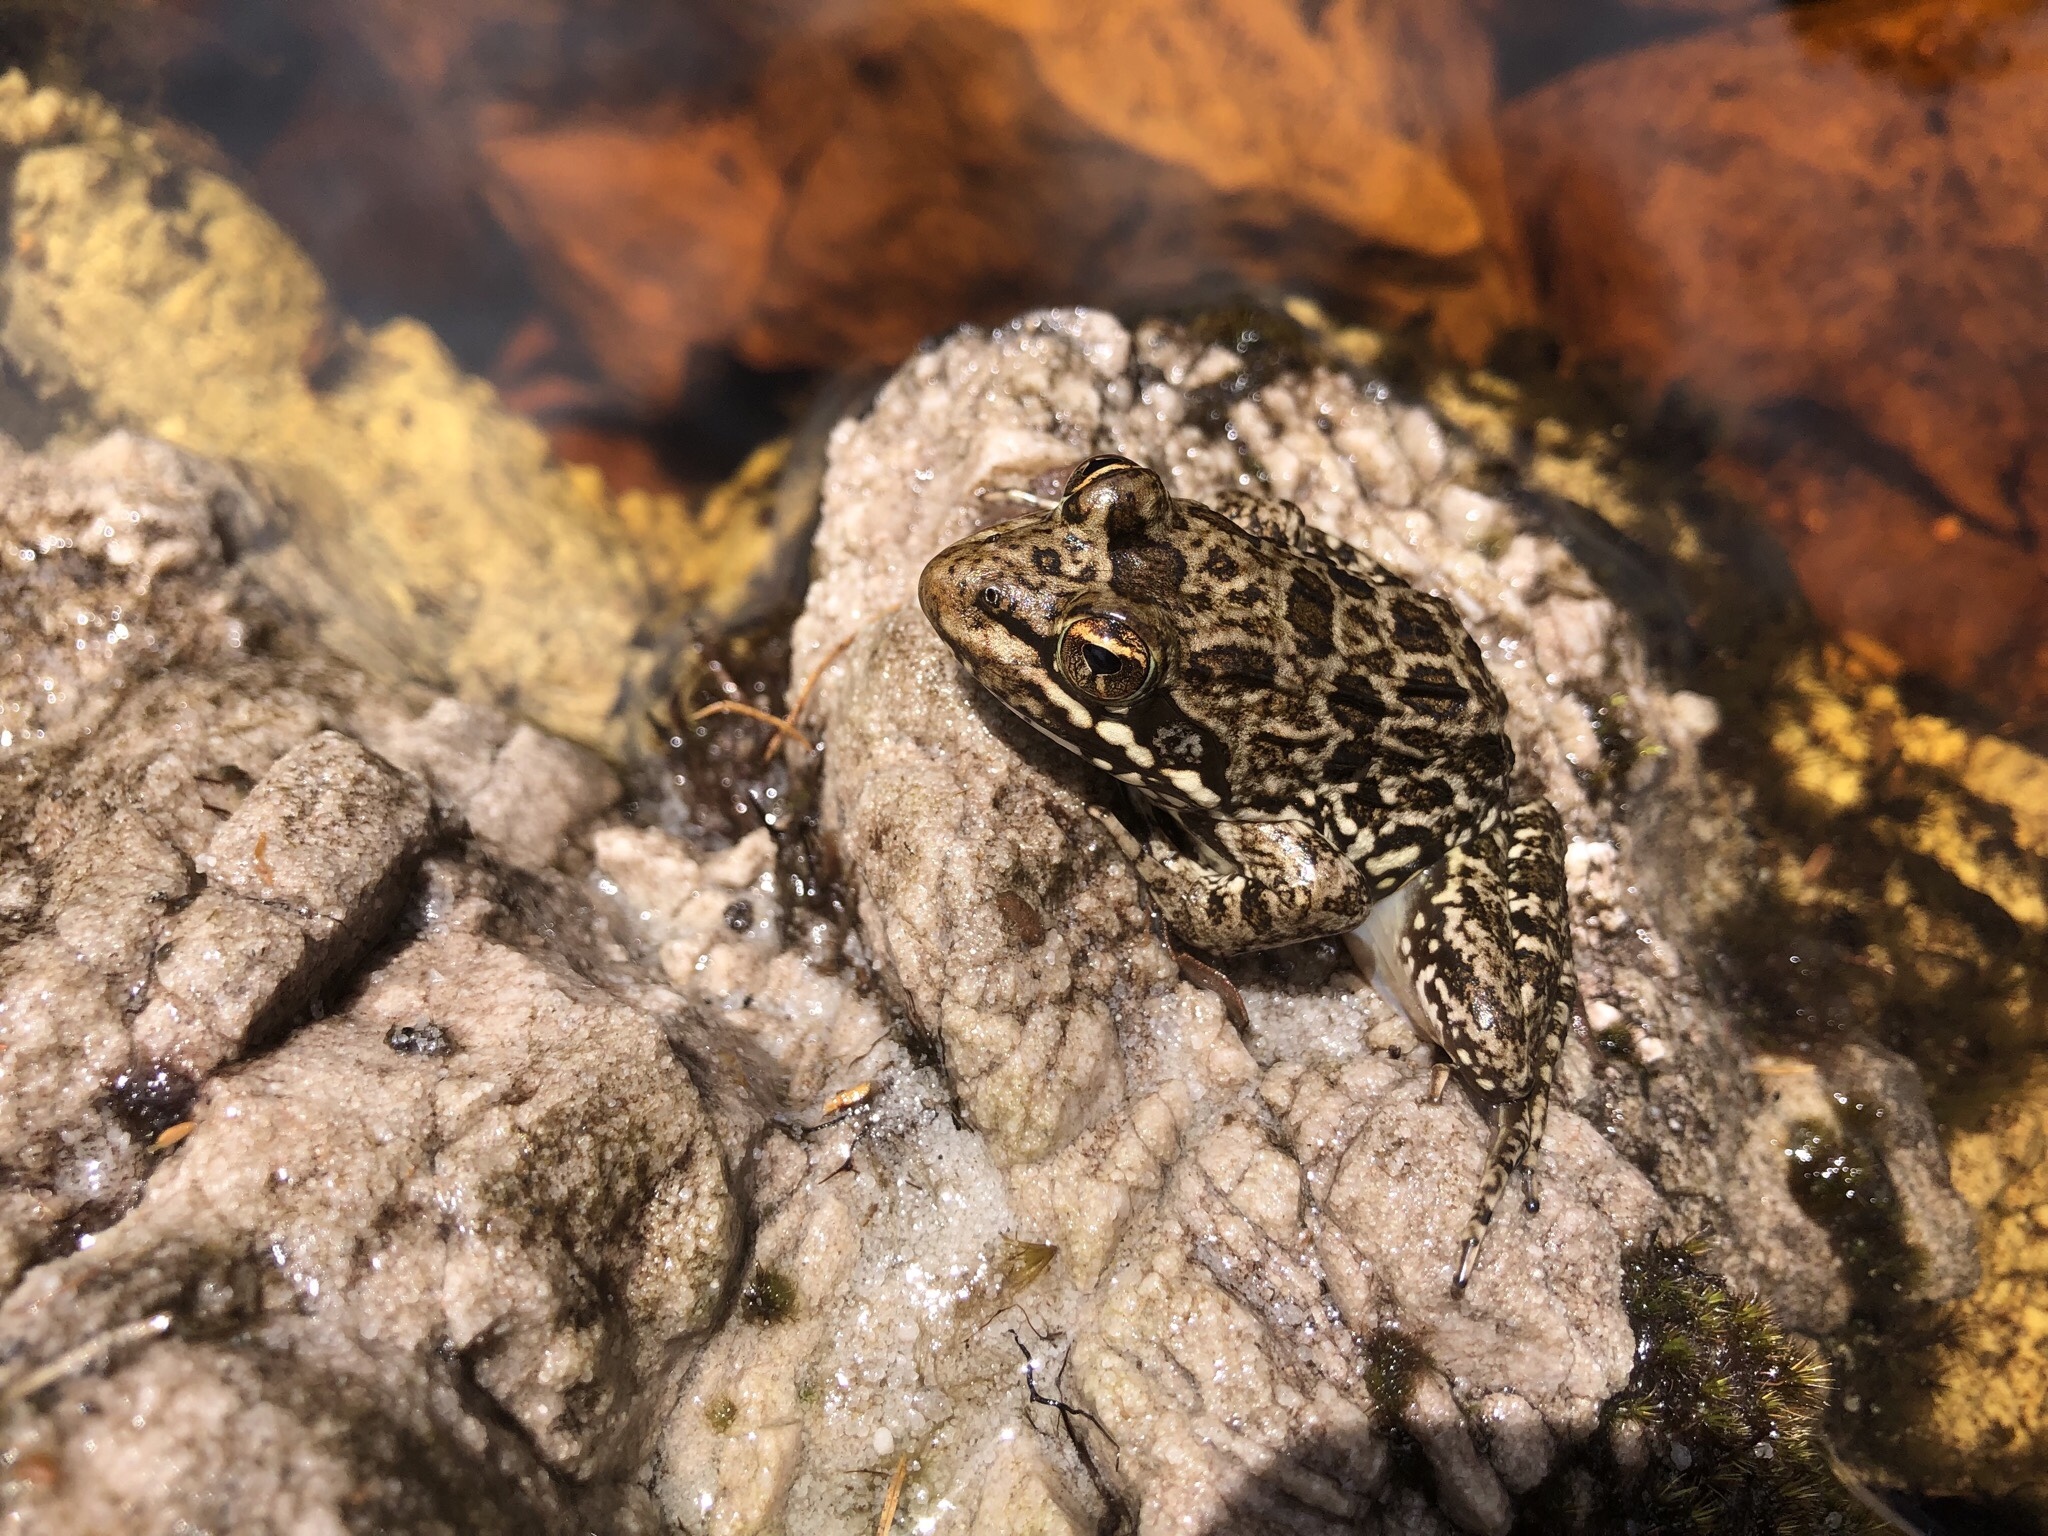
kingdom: Animalia
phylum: Chordata
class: Amphibia
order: Anura
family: Pyxicephalidae
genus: Amietia
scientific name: Amietia fuscigula
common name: Cape rana
